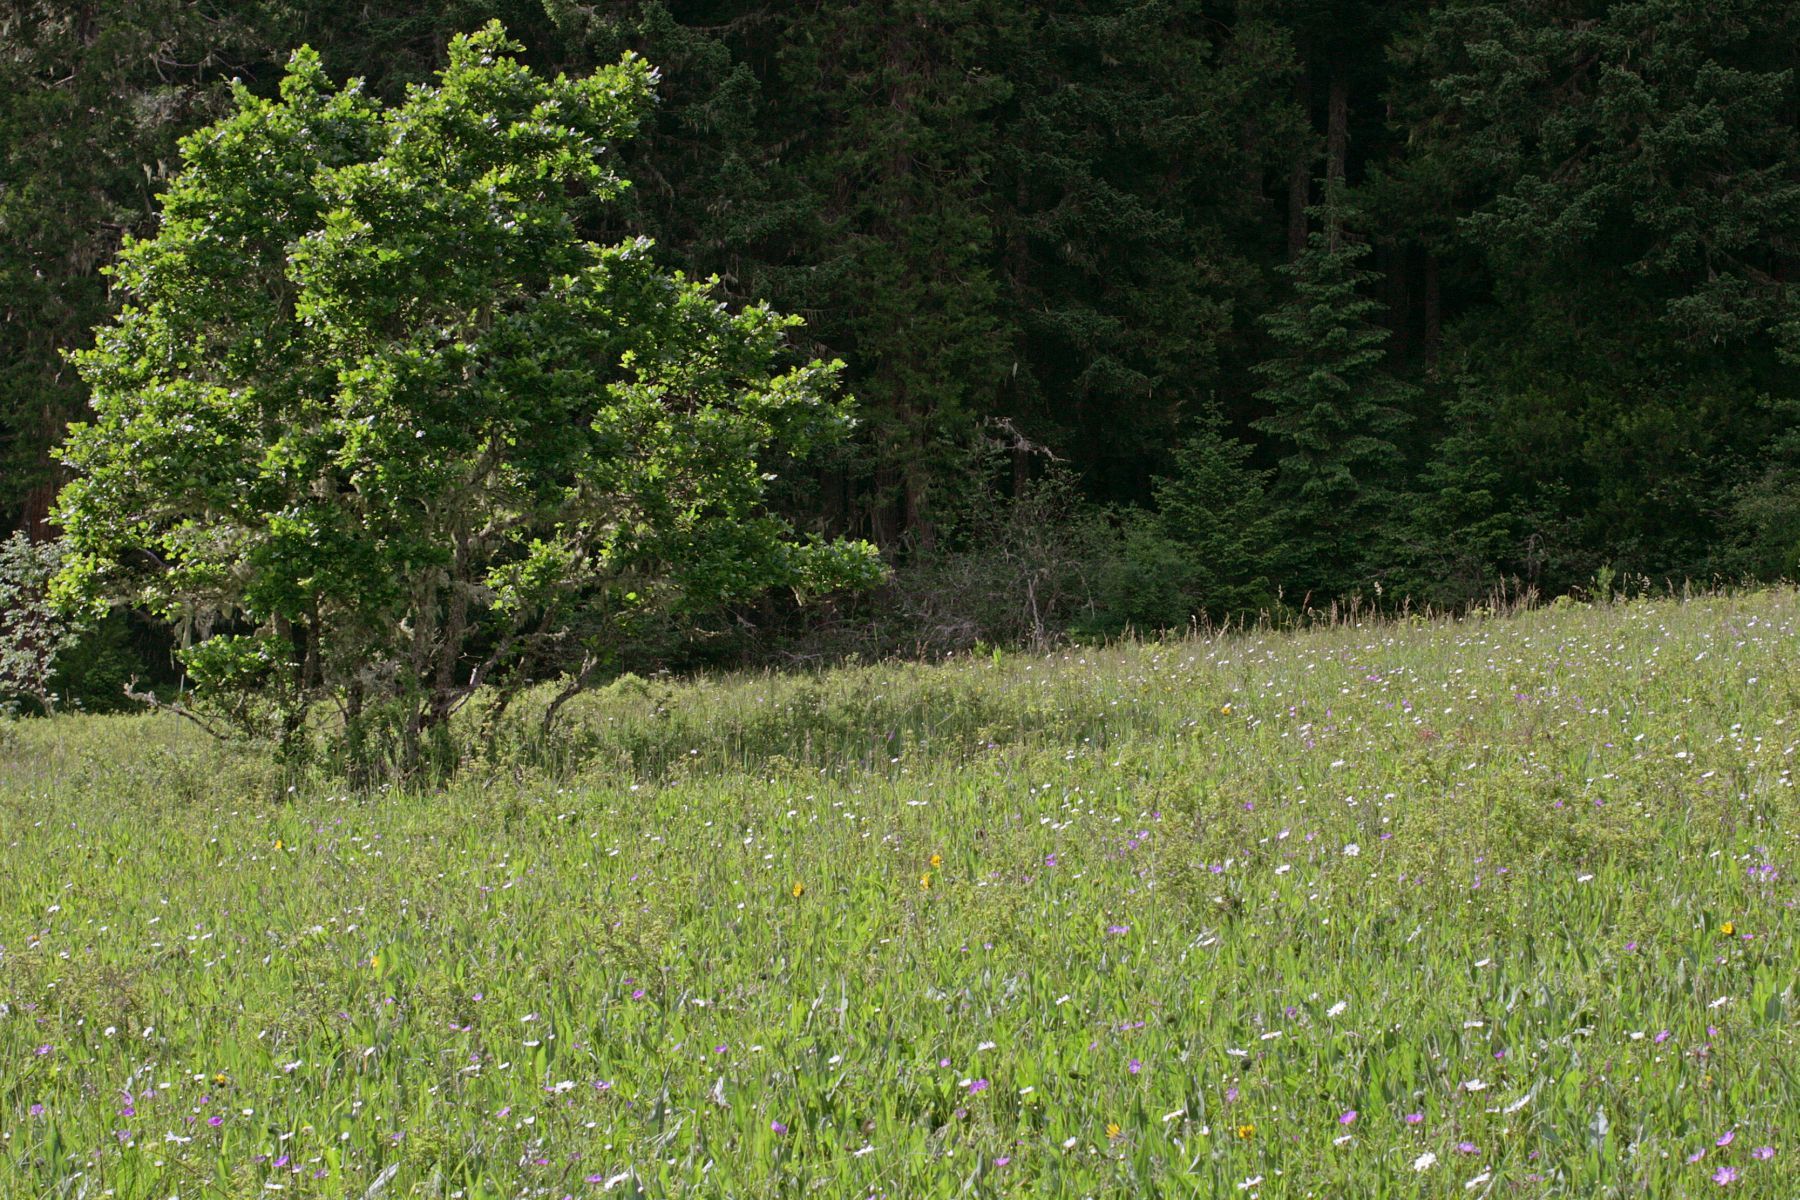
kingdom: Plantae
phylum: Tracheophyta
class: Magnoliopsida
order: Fagales
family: Fagaceae
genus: Quercus
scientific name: Quercus garryana
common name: Garry oak
